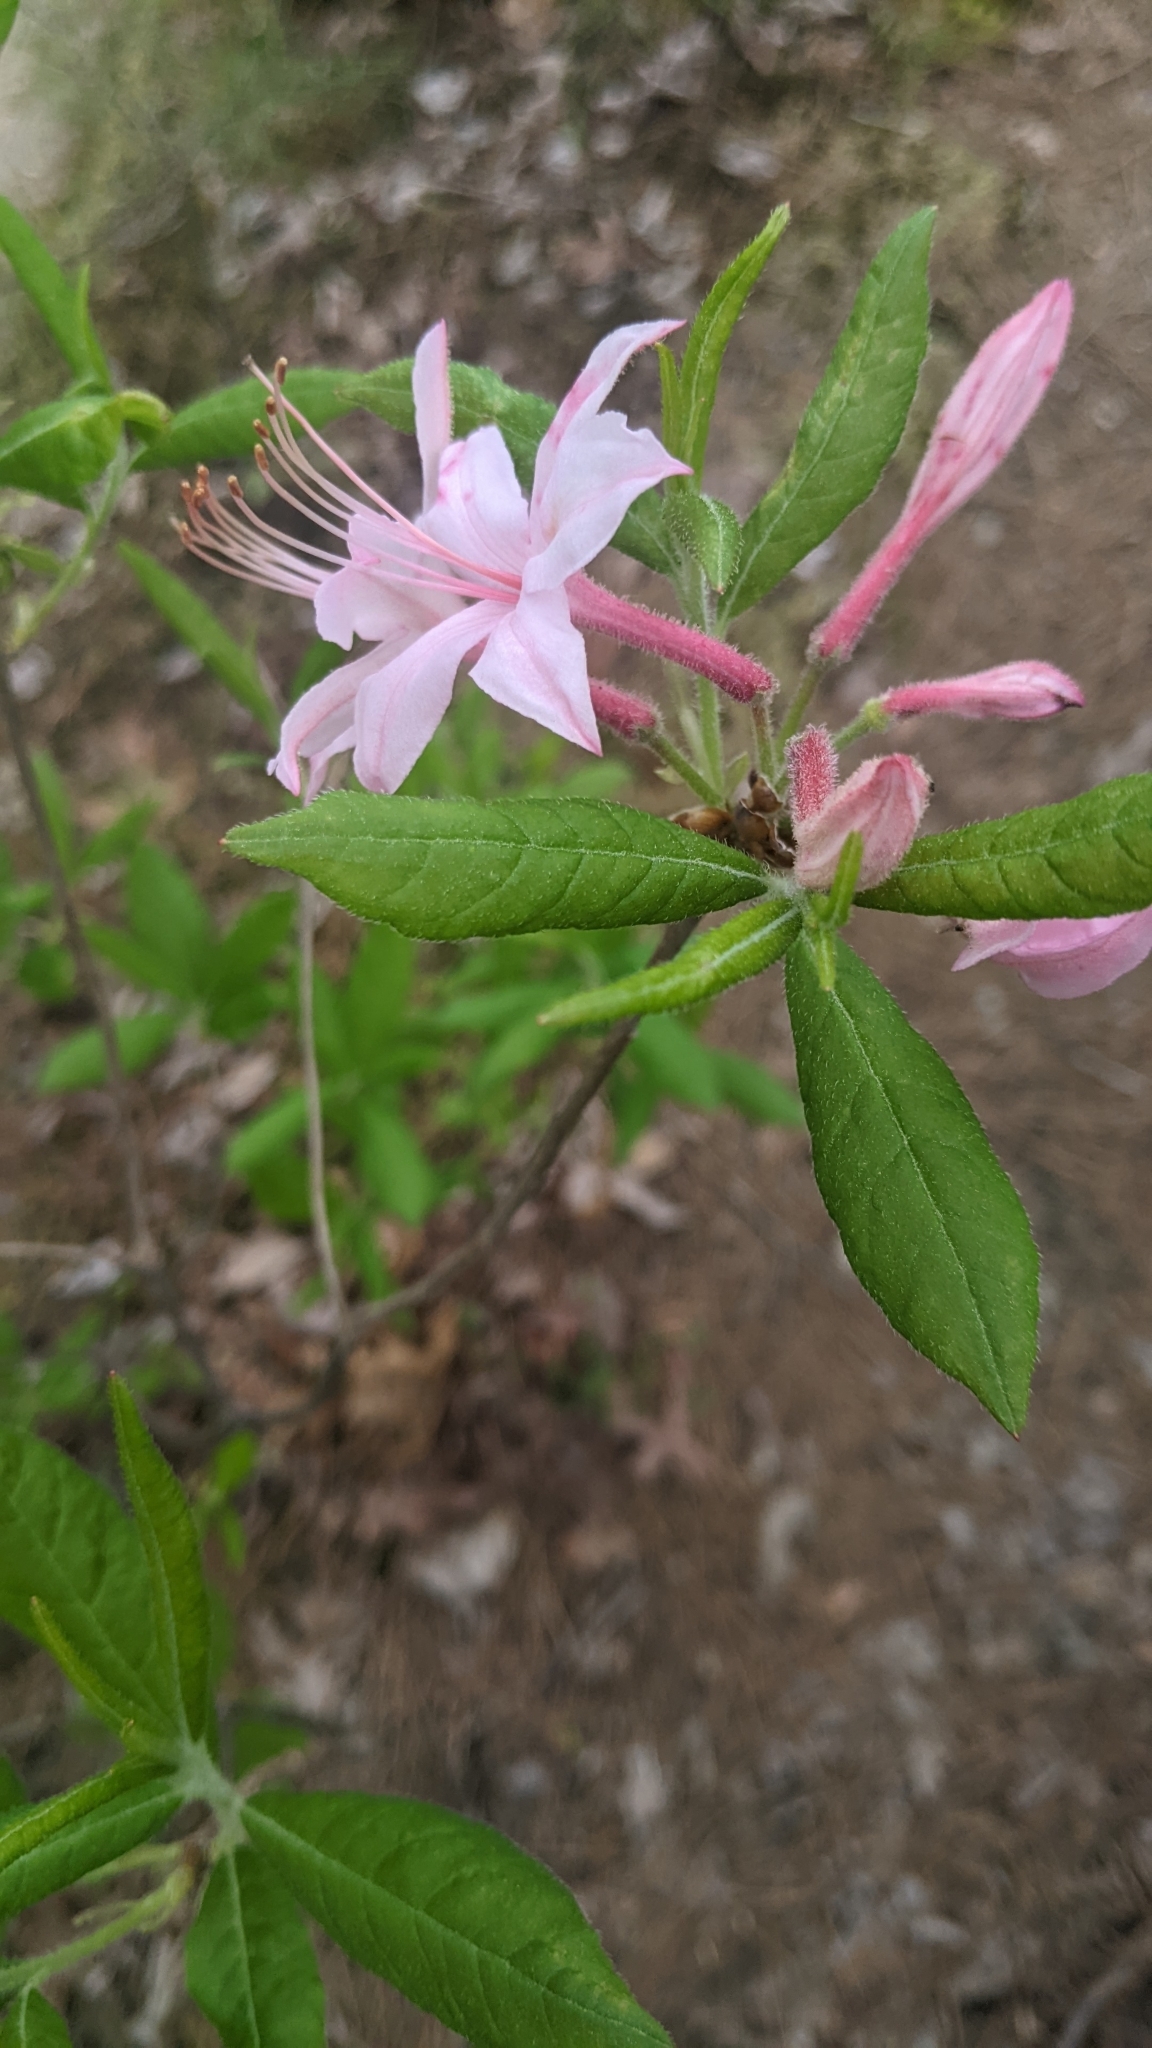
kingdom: Plantae
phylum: Tracheophyta
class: Magnoliopsida
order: Ericales
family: Ericaceae
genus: Rhododendron
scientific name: Rhododendron roseum
